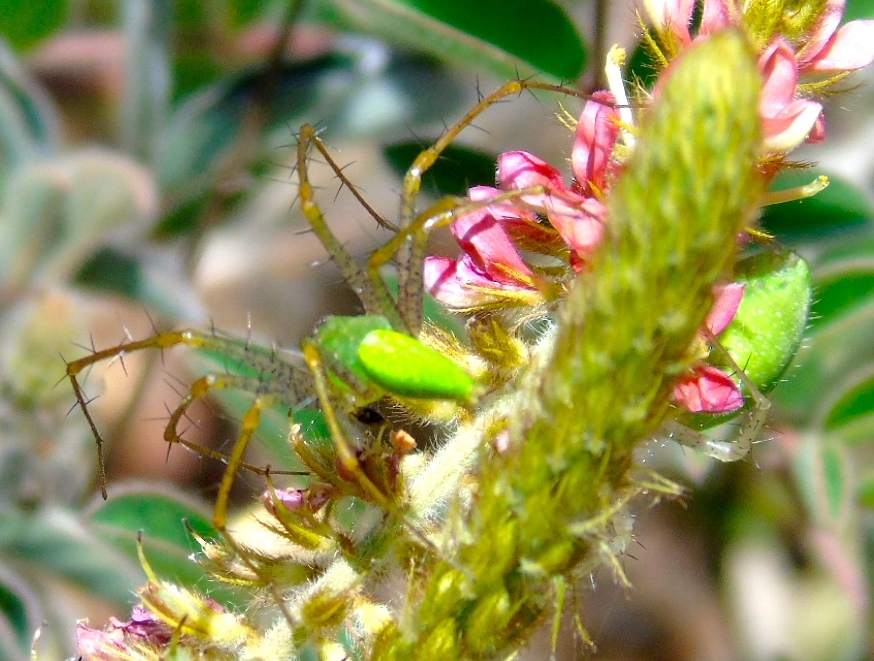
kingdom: Animalia
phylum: Arthropoda
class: Arachnida
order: Araneae
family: Oxyopidae
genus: Peucetia
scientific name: Peucetia longipalpis
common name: Lynx spiders
